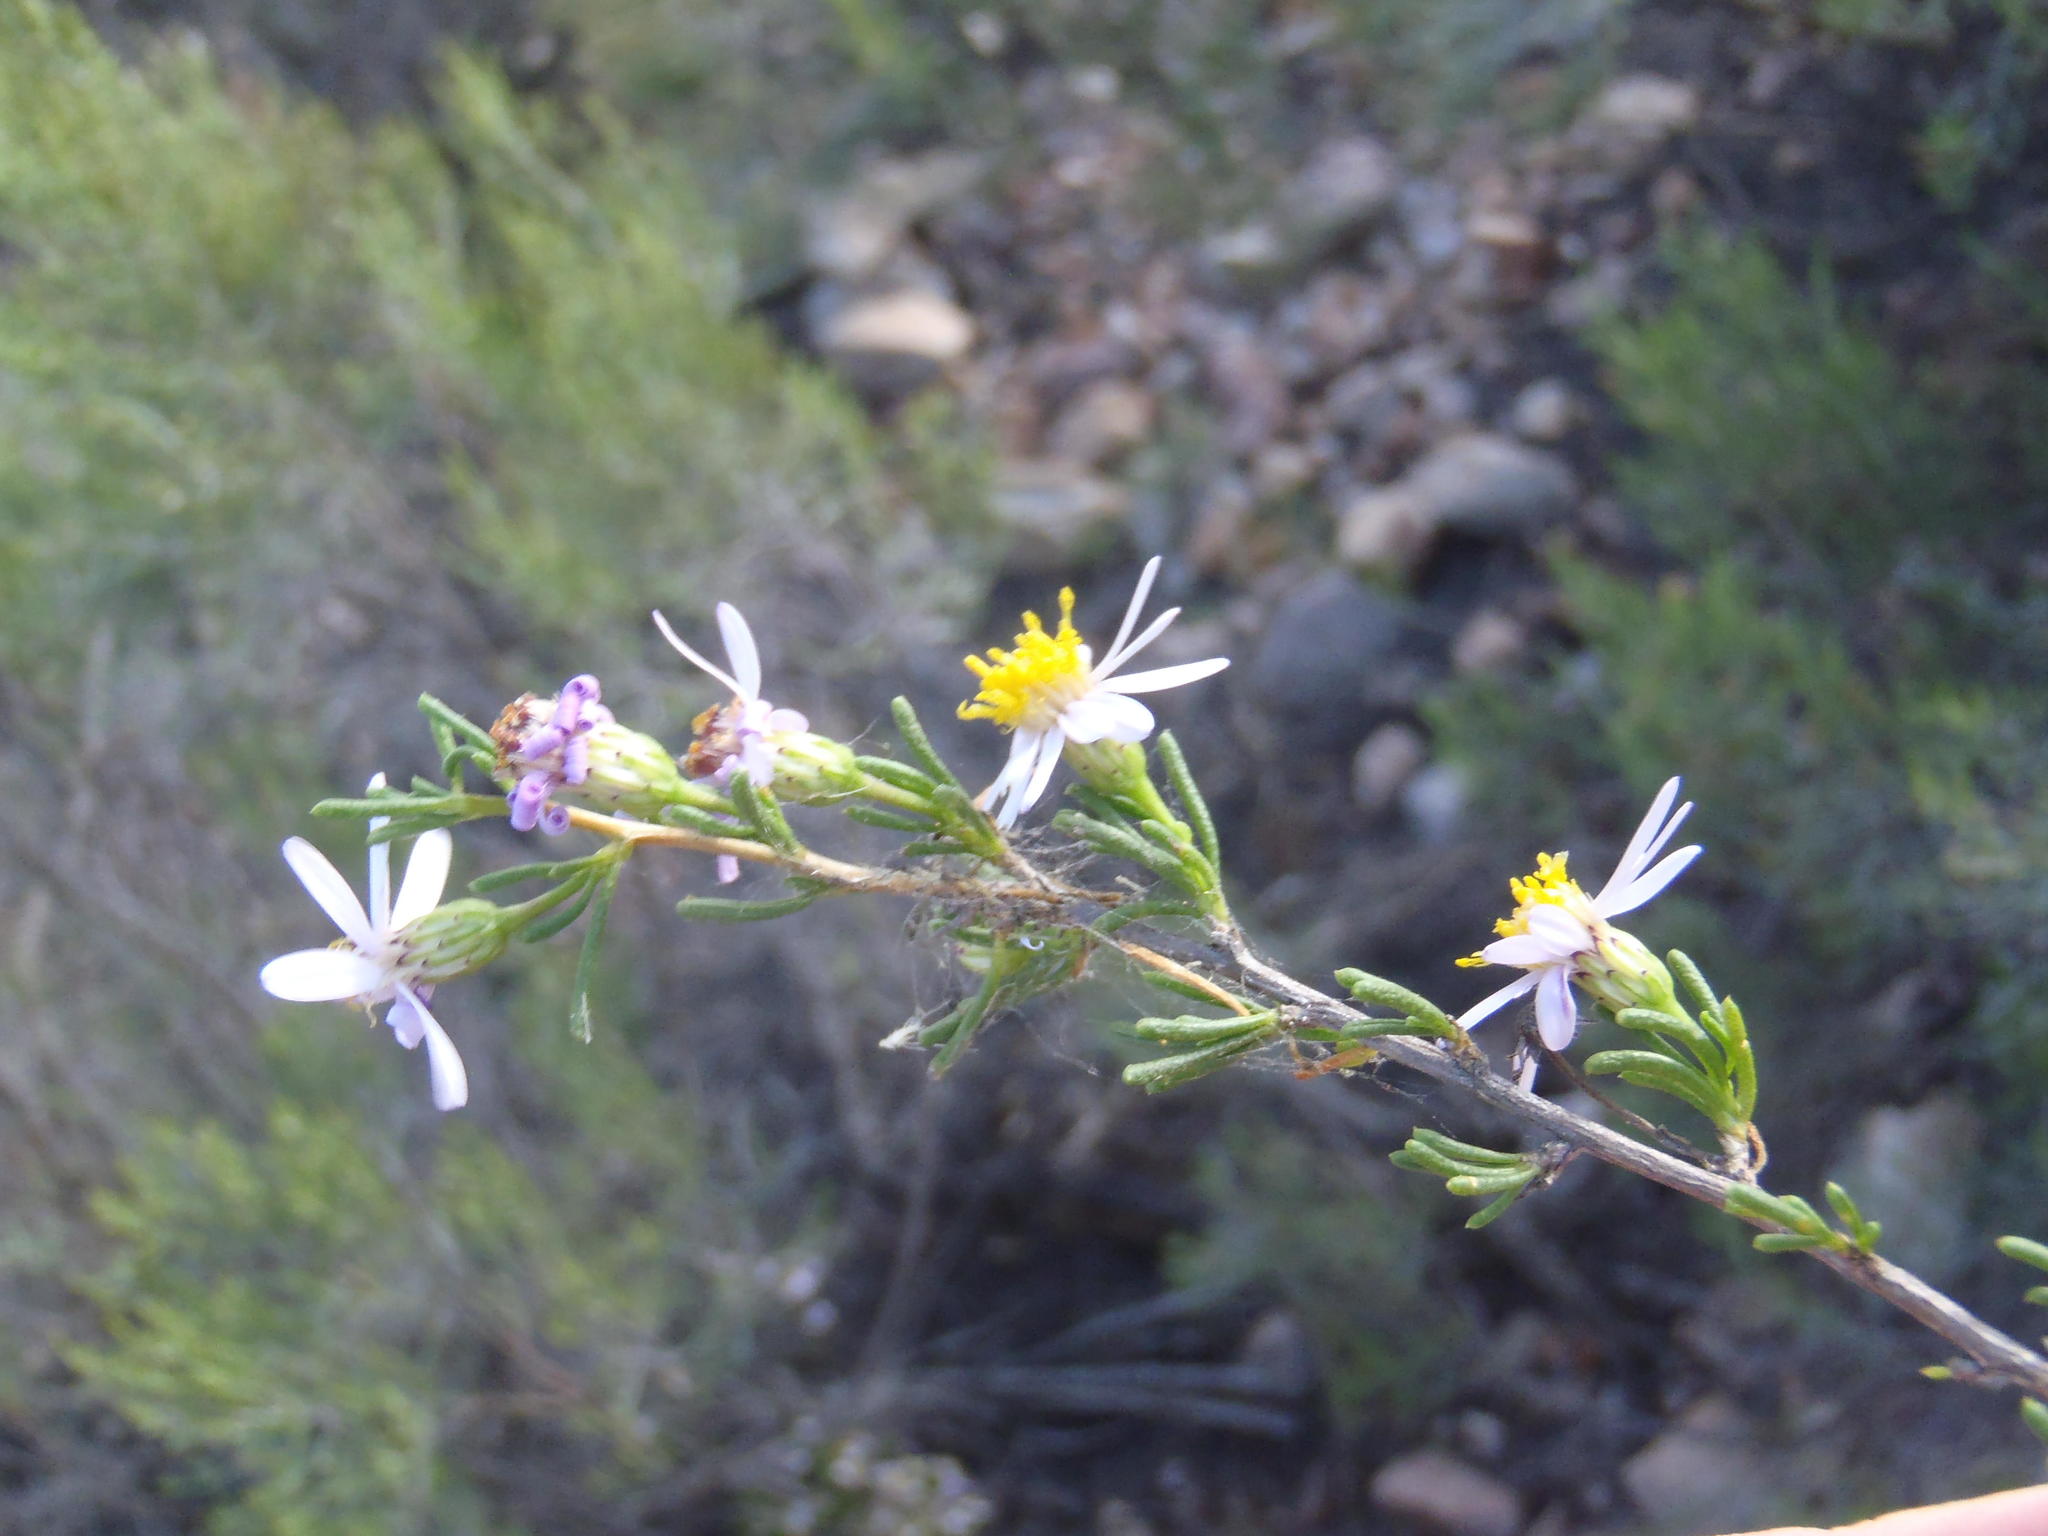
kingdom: Plantae
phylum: Tracheophyta
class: Magnoliopsida
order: Asterales
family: Asteraceae
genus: Felicia
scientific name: Felicia filifolia
